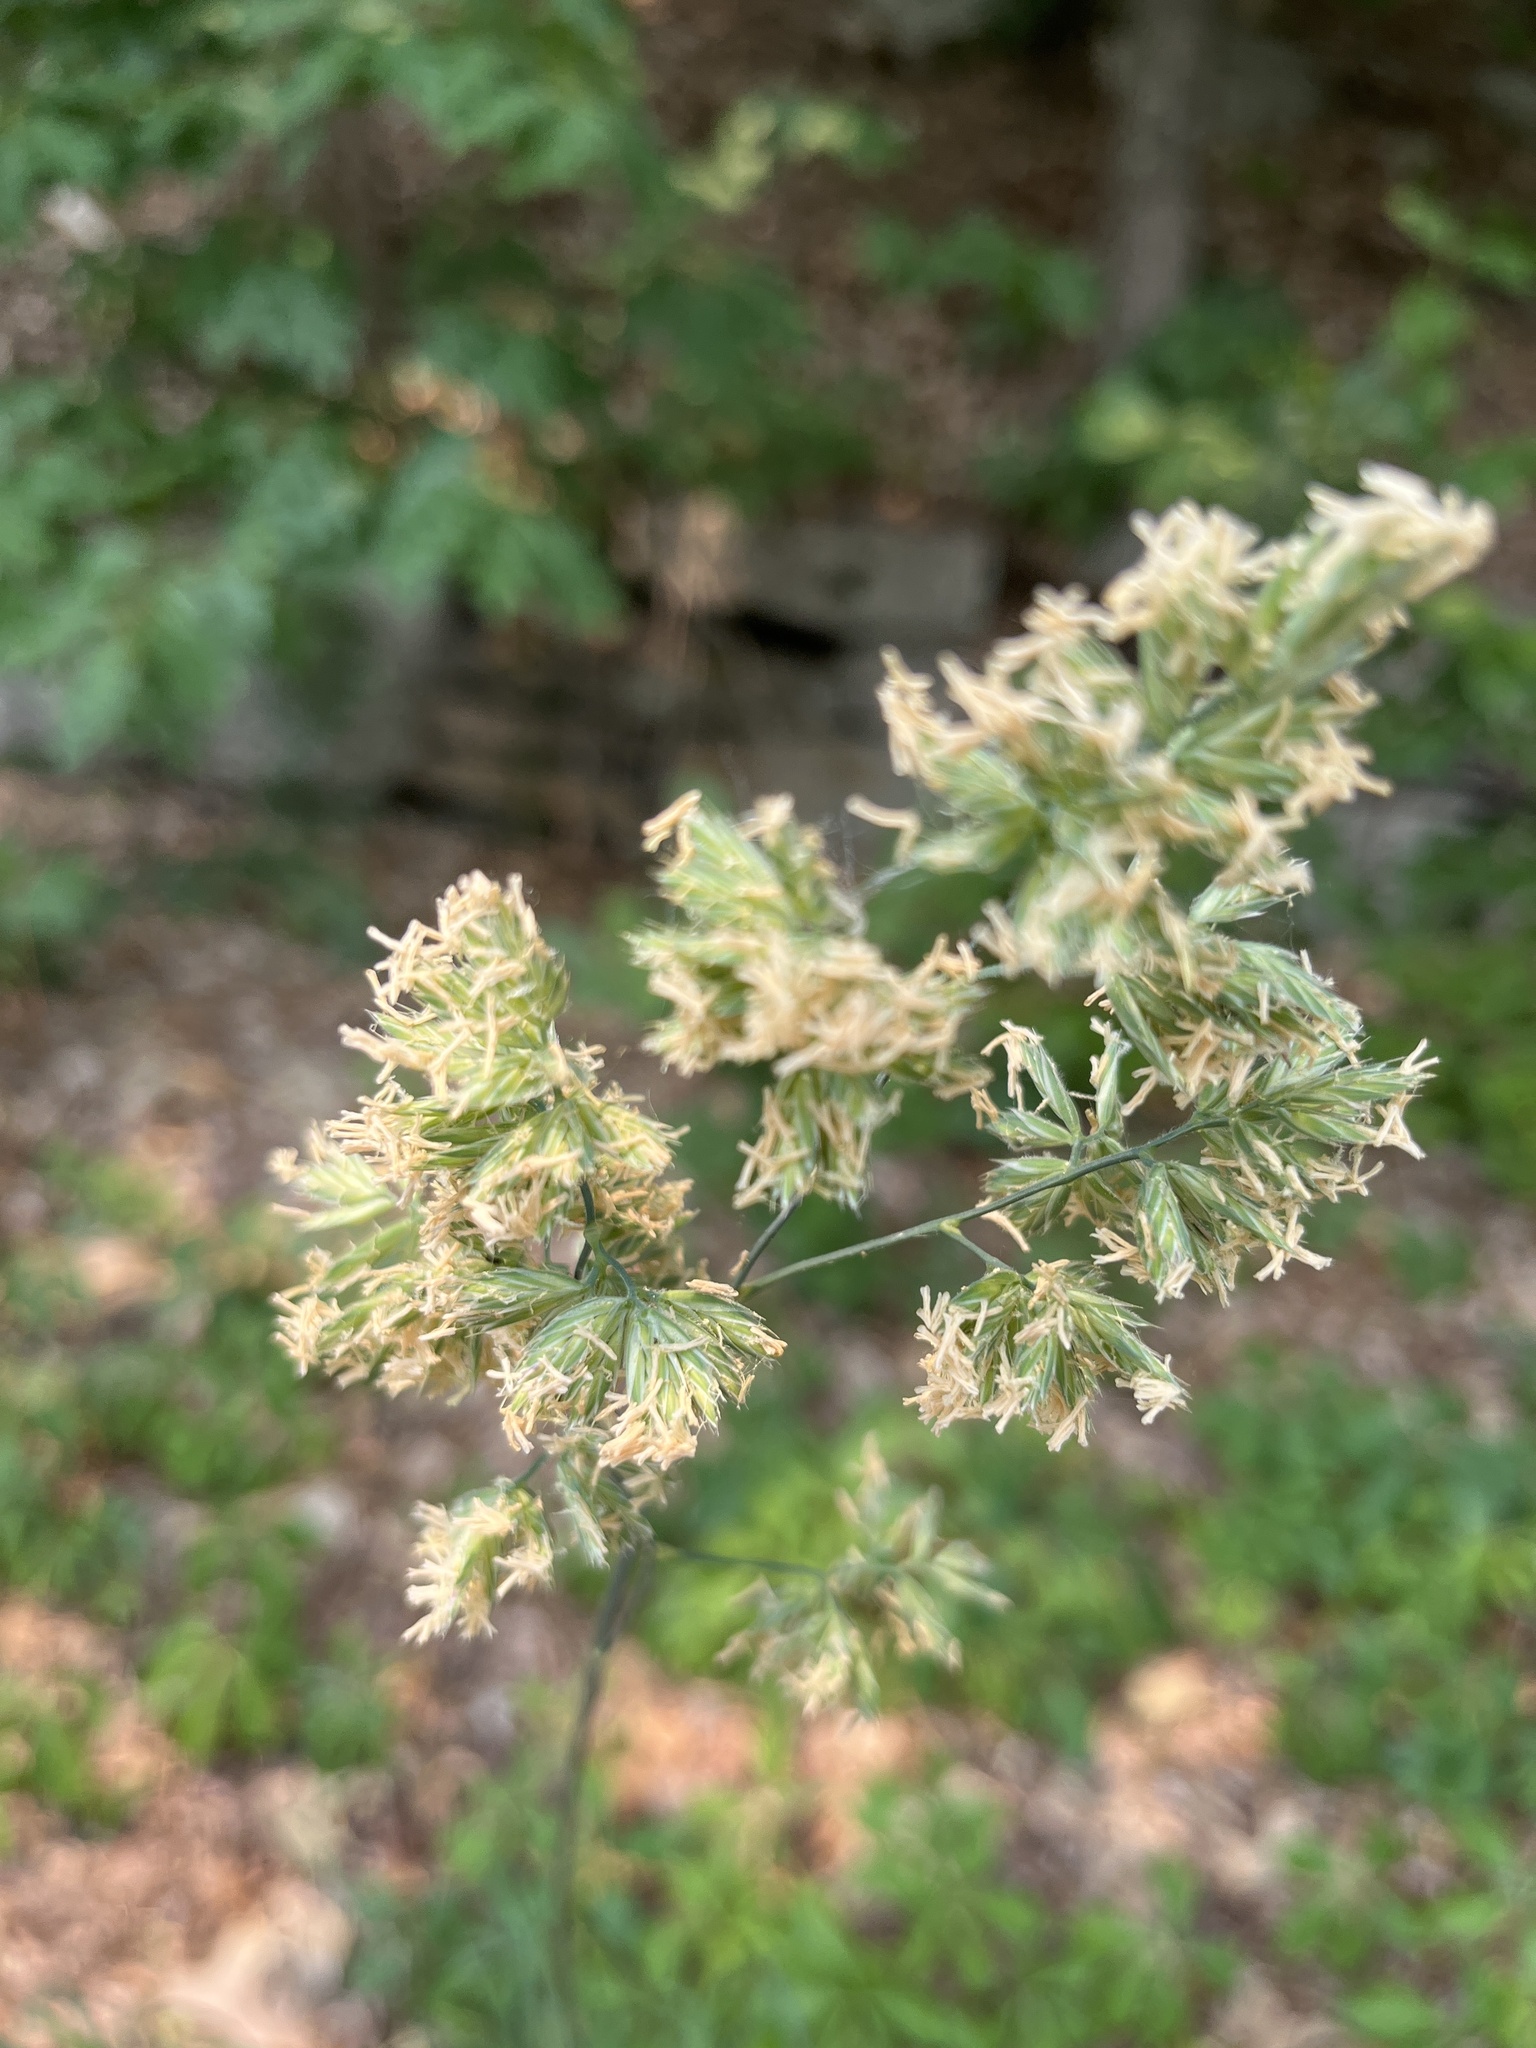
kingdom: Plantae
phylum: Tracheophyta
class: Liliopsida
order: Poales
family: Poaceae
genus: Dactylis
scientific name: Dactylis glomerata
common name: Orchardgrass
